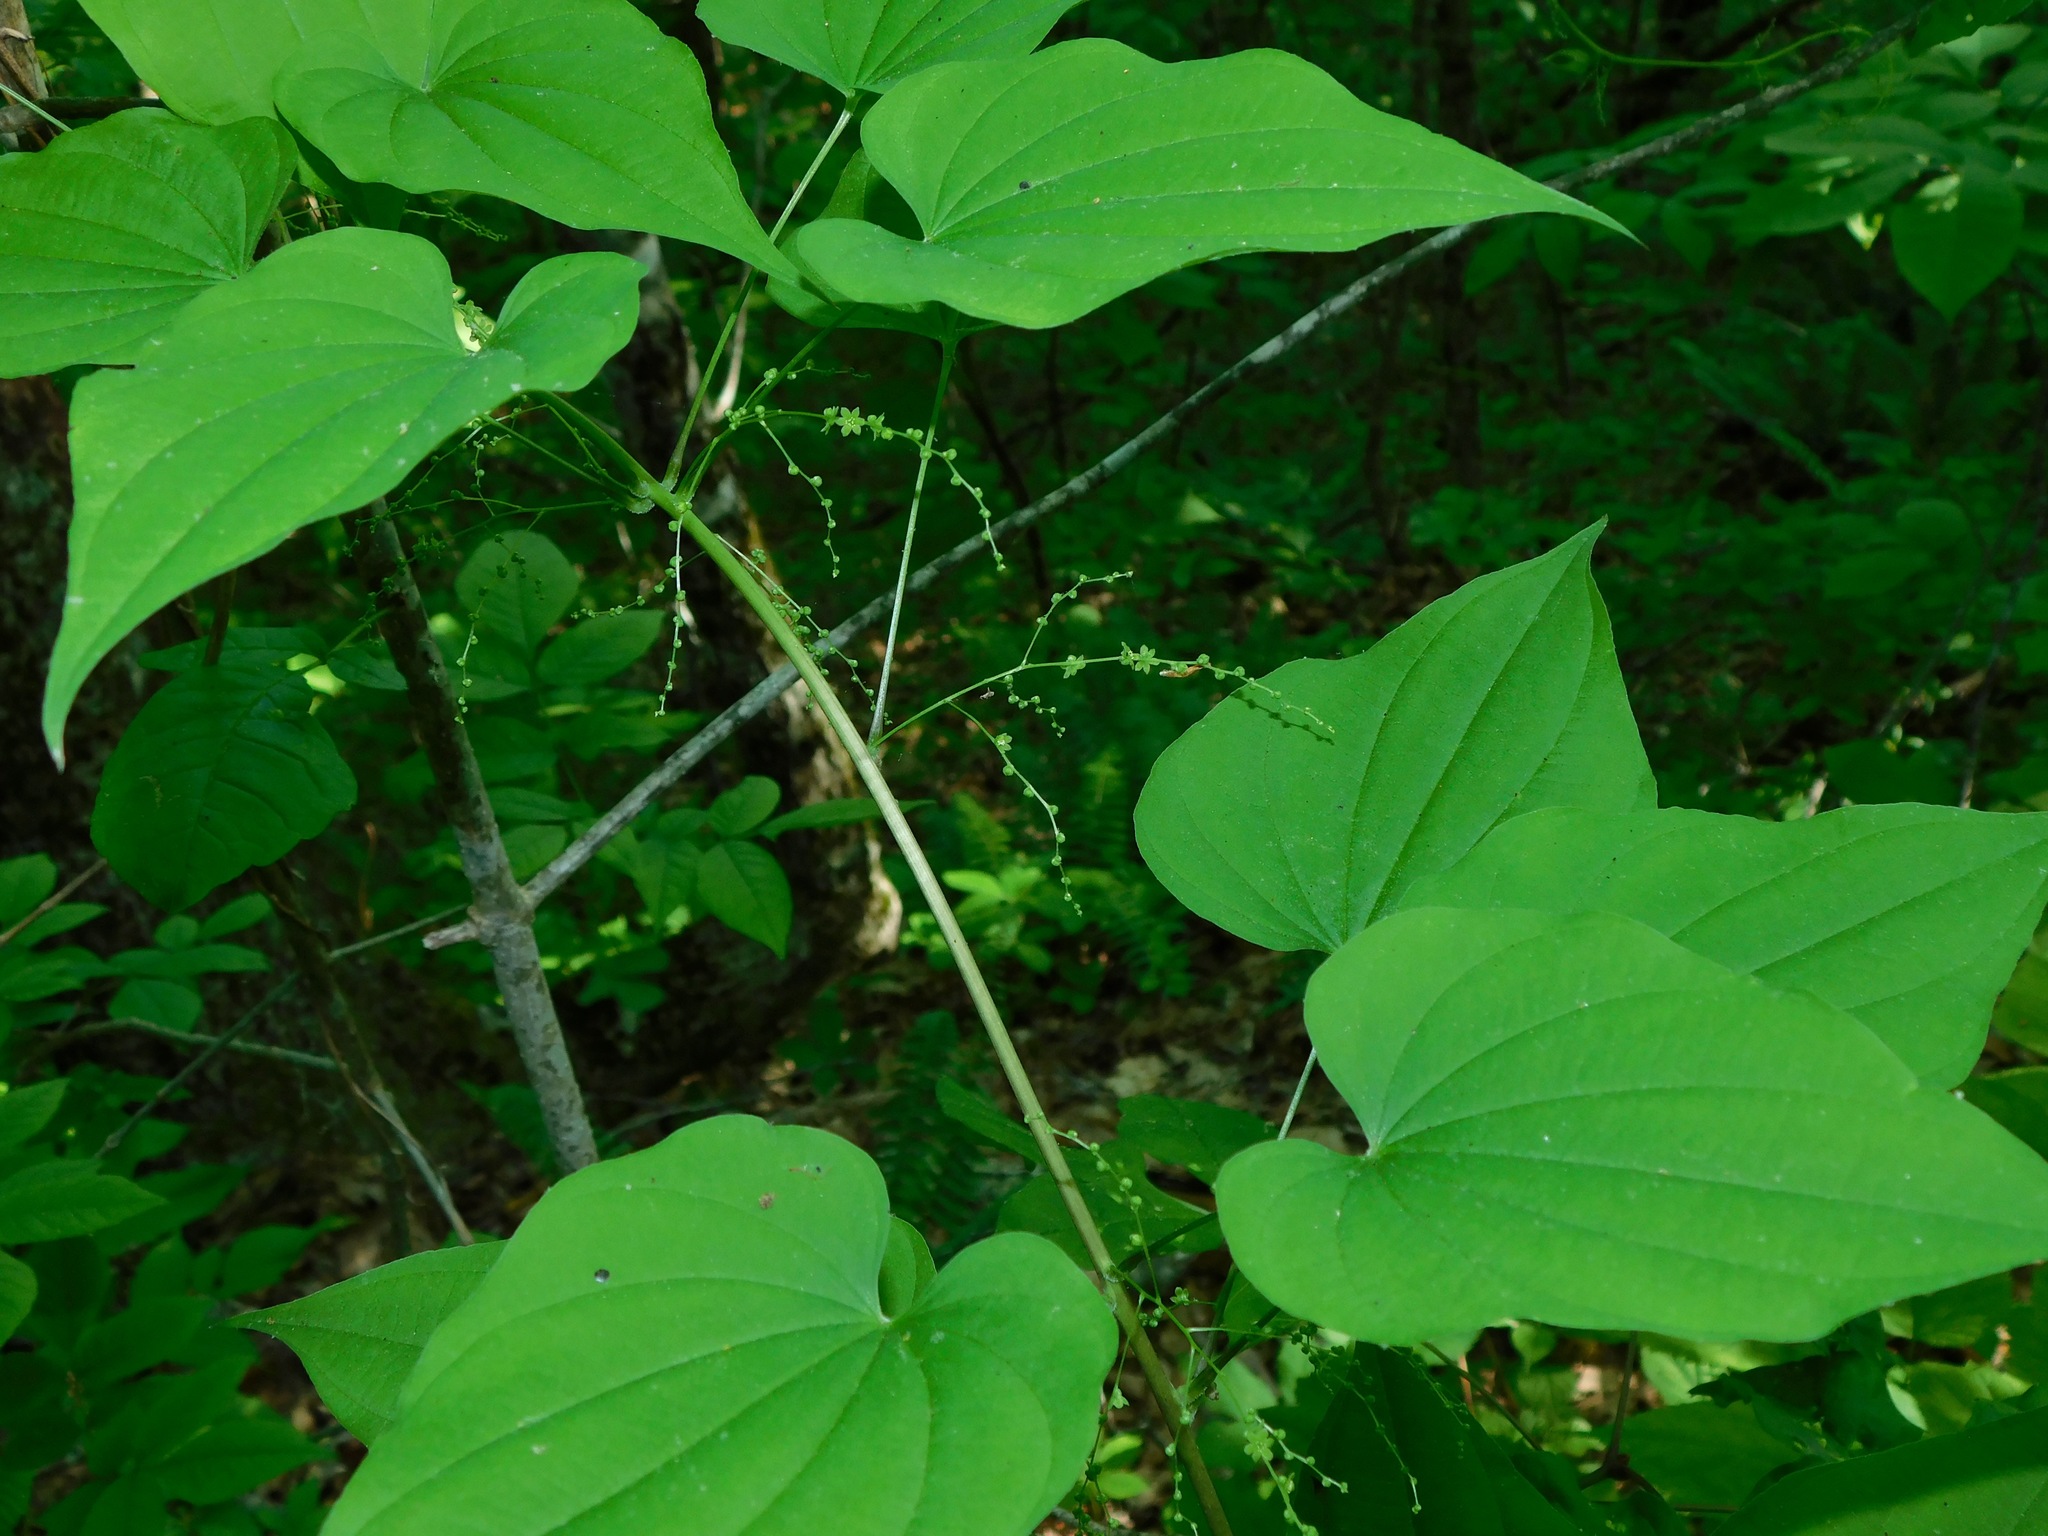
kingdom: Plantae
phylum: Tracheophyta
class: Liliopsida
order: Dioscoreales
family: Dioscoreaceae
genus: Dioscorea
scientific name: Dioscorea villosa
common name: Wild yam
